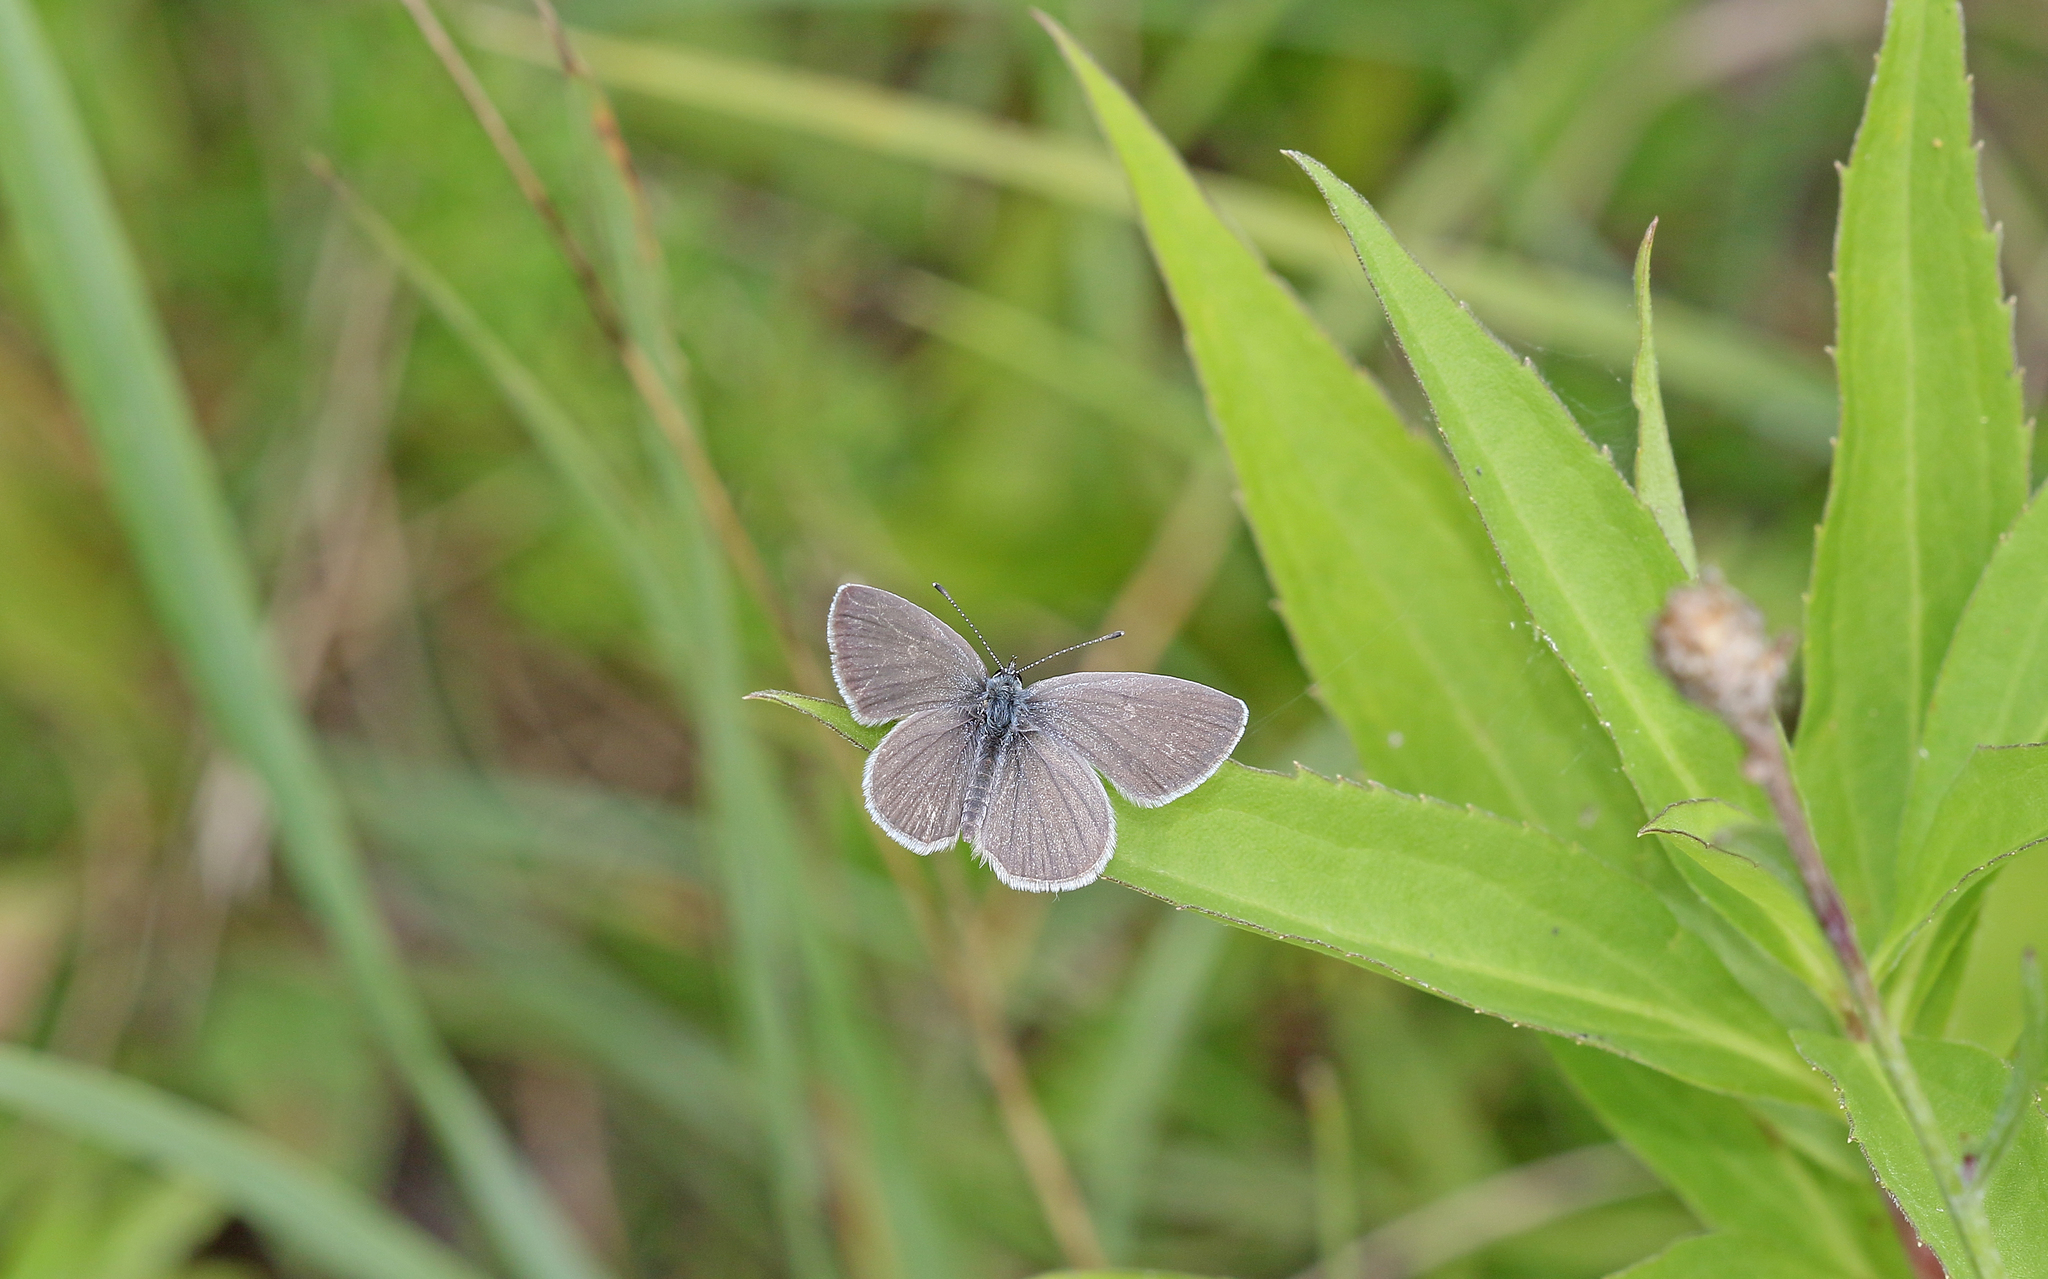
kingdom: Animalia
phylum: Arthropoda
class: Insecta
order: Lepidoptera
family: Lycaenidae
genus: Cupido
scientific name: Cupido minimus
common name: Small blue
